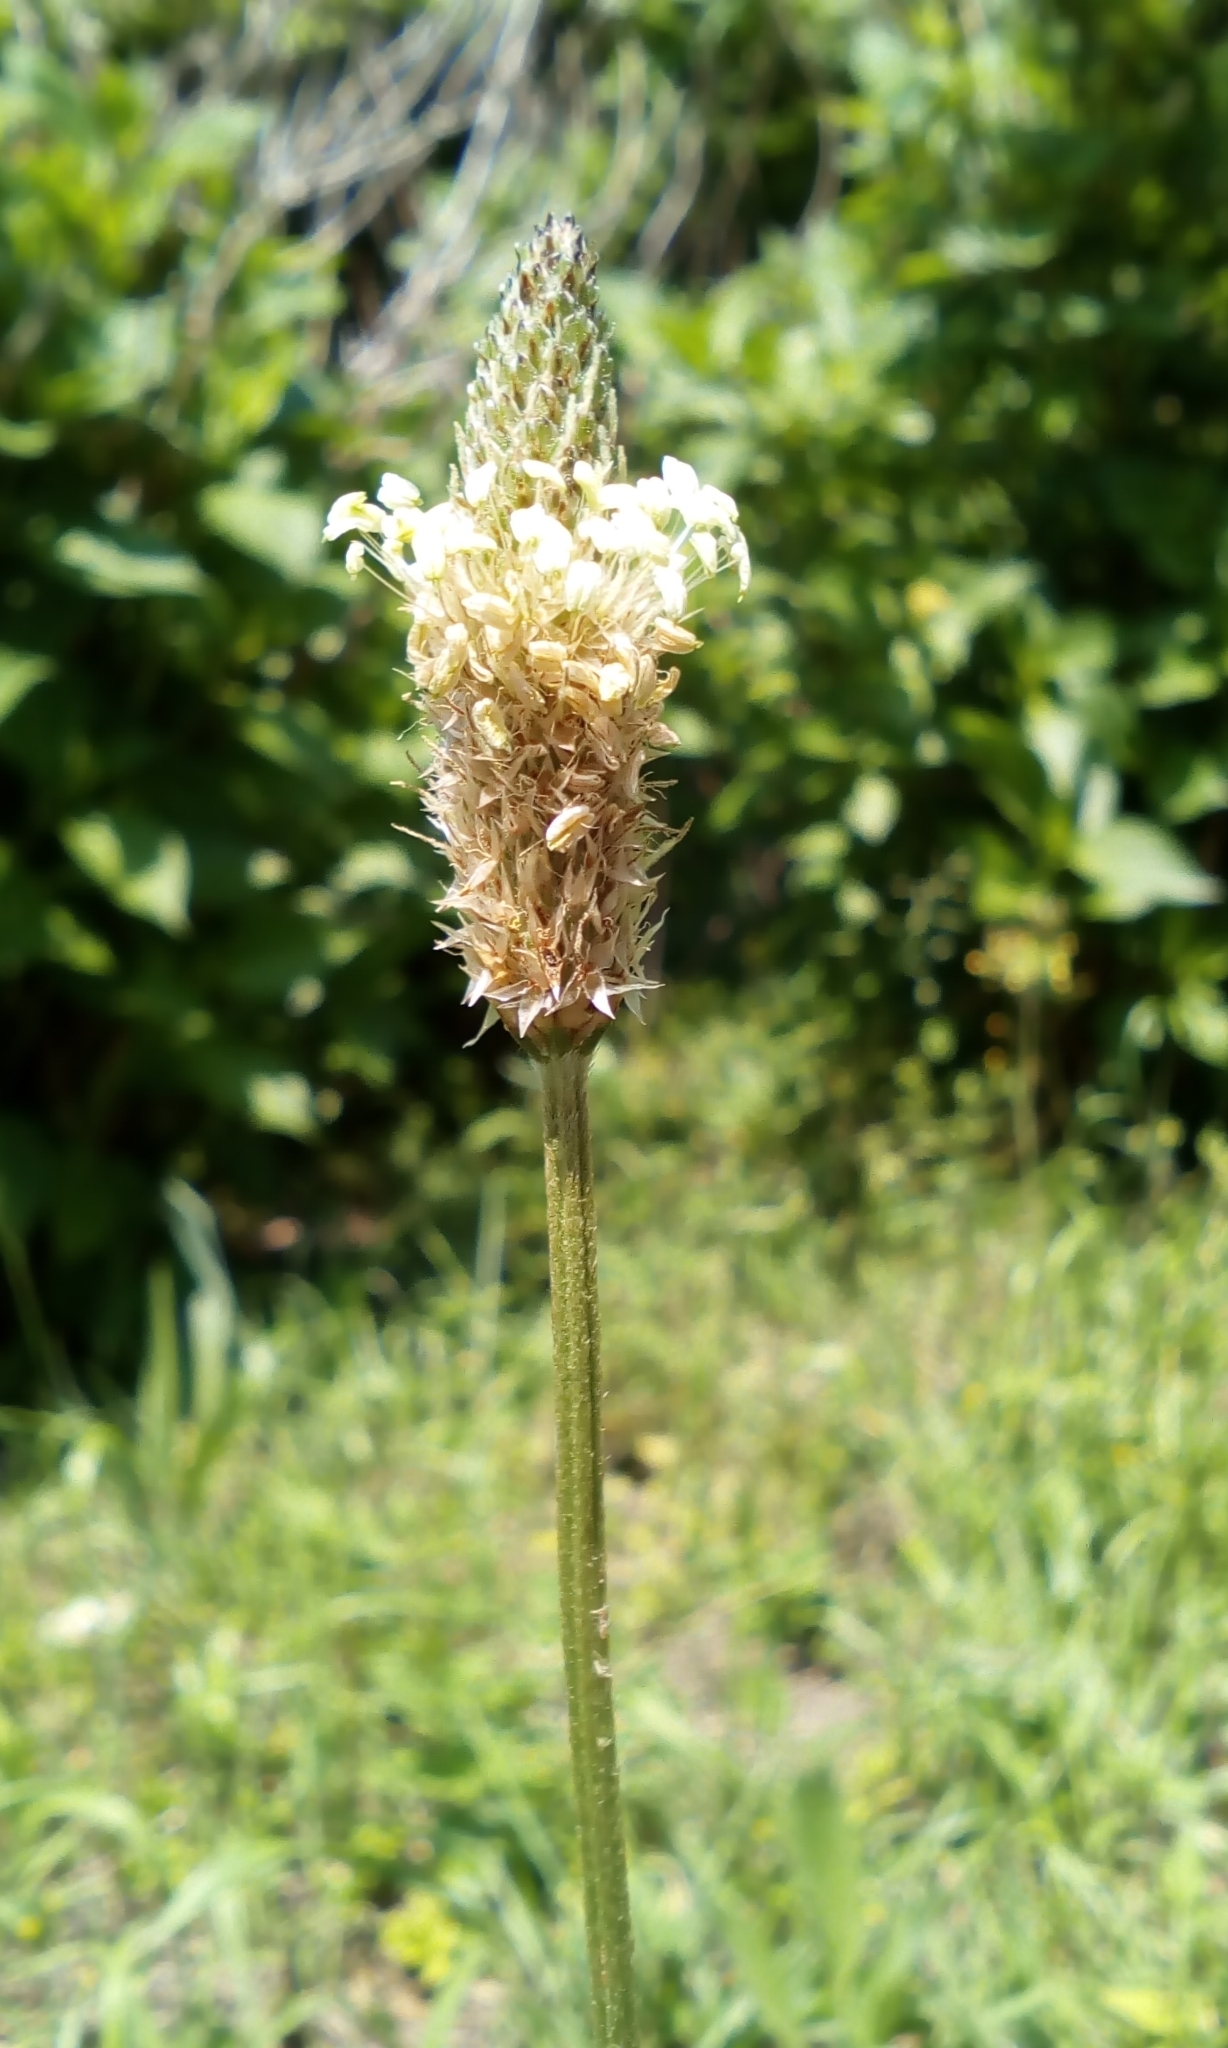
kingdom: Plantae
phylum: Tracheophyta
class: Magnoliopsida
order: Lamiales
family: Plantaginaceae
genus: Plantago
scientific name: Plantago lanceolata
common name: Ribwort plantain
